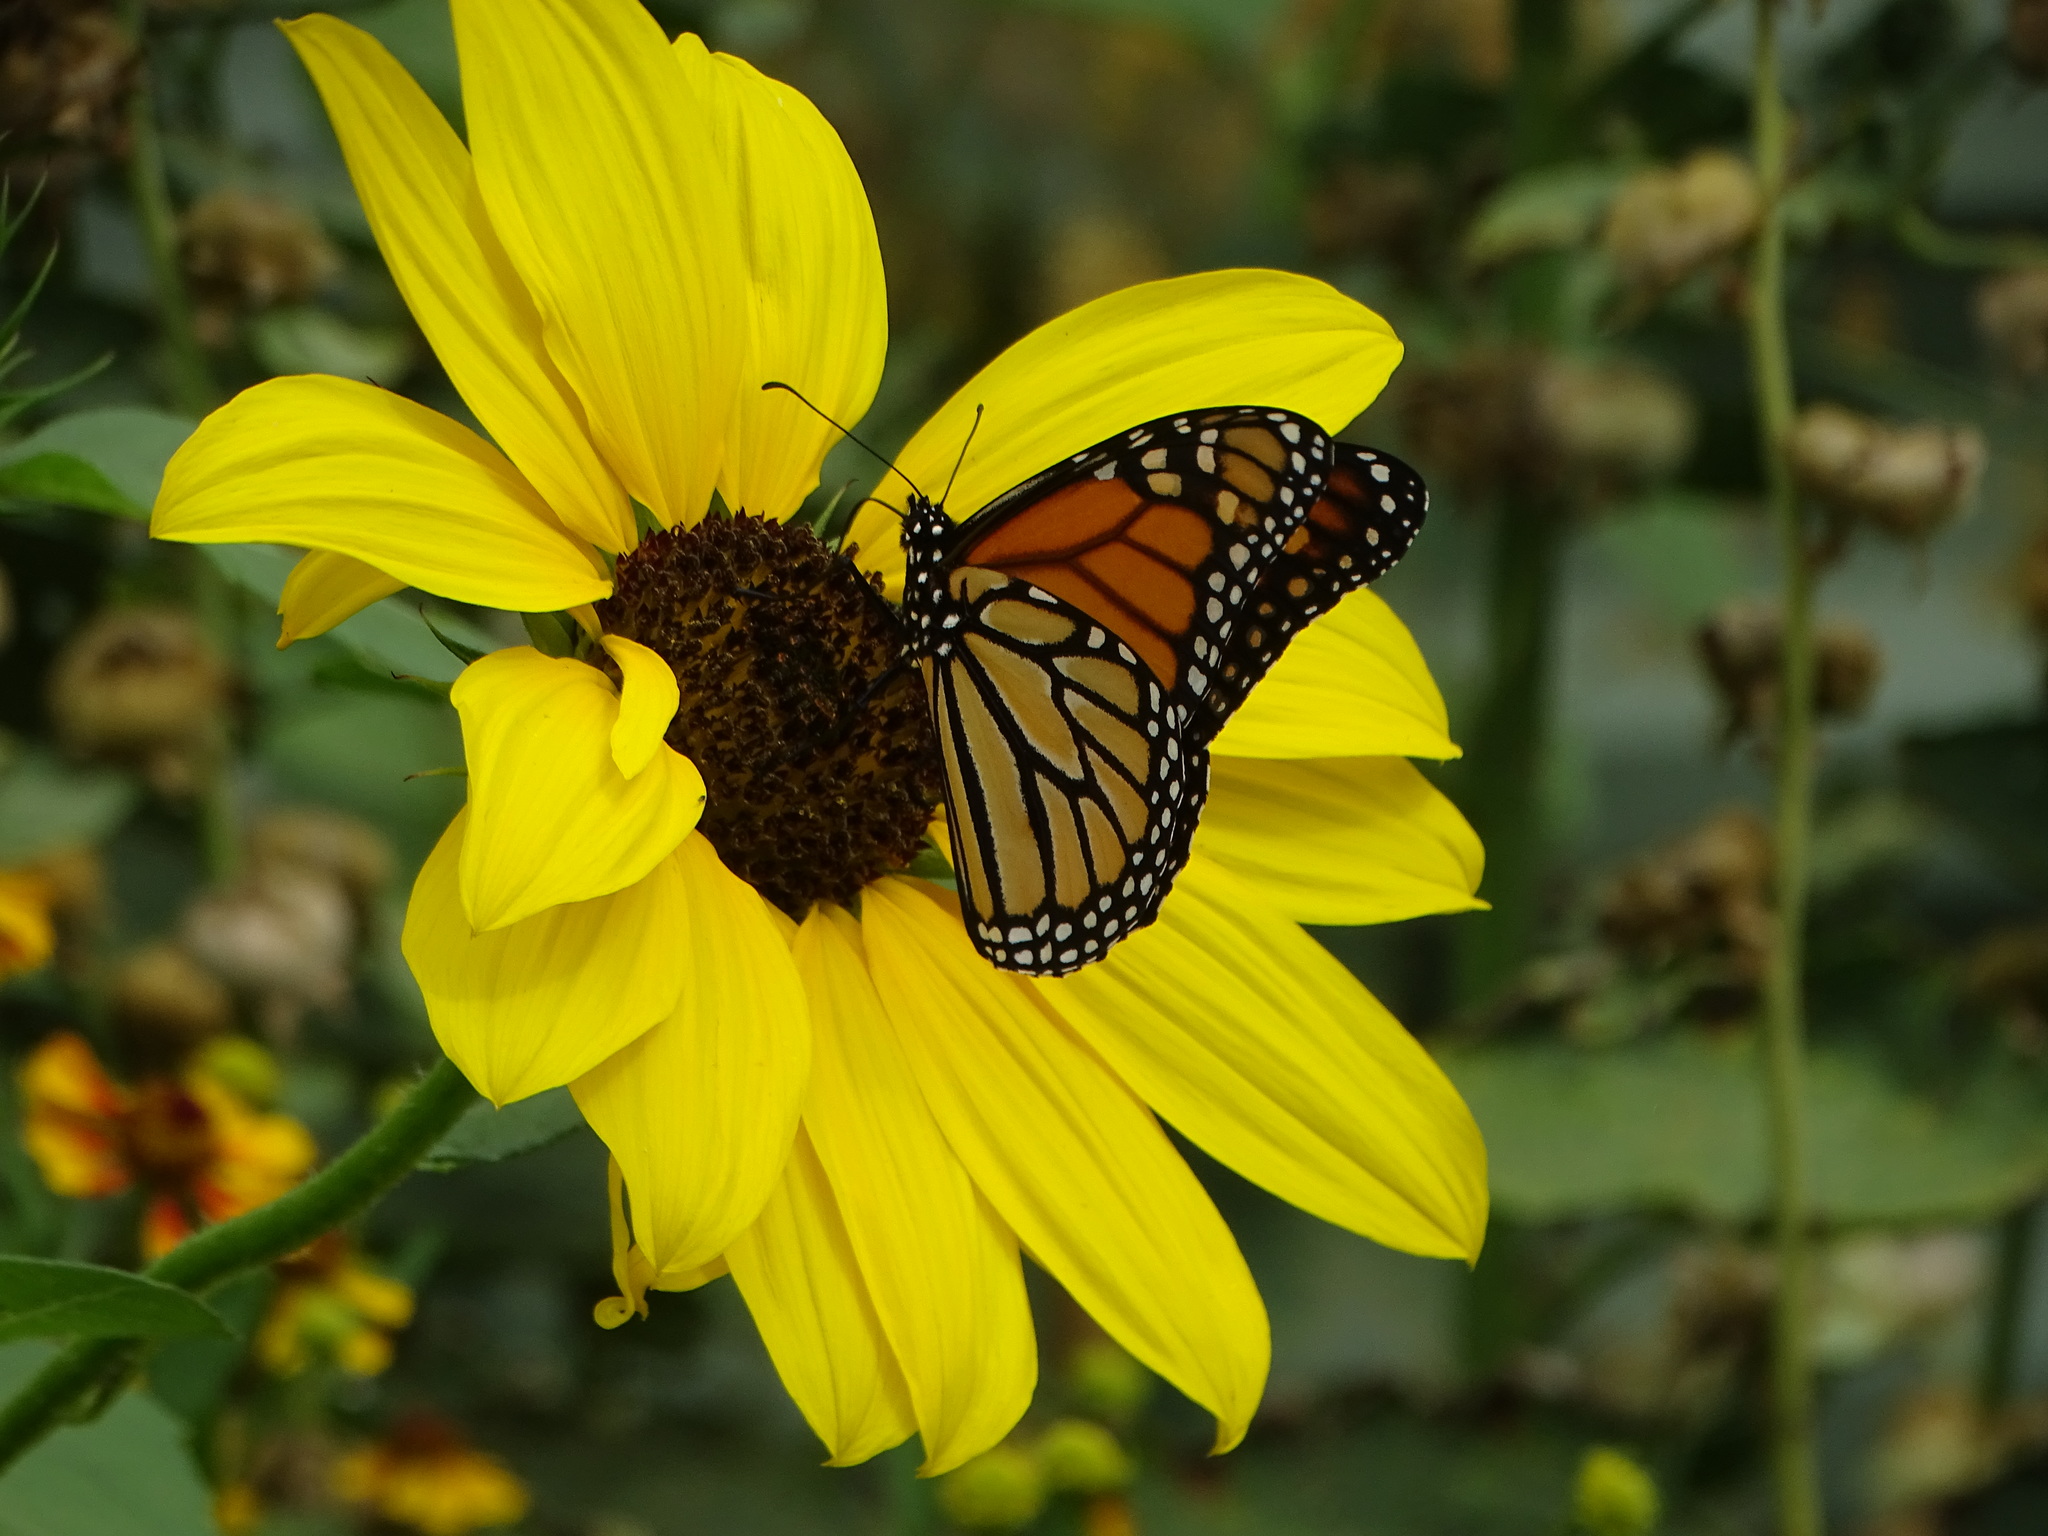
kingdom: Animalia
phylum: Arthropoda
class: Insecta
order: Lepidoptera
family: Nymphalidae
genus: Danaus
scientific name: Danaus plexippus
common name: Monarch
